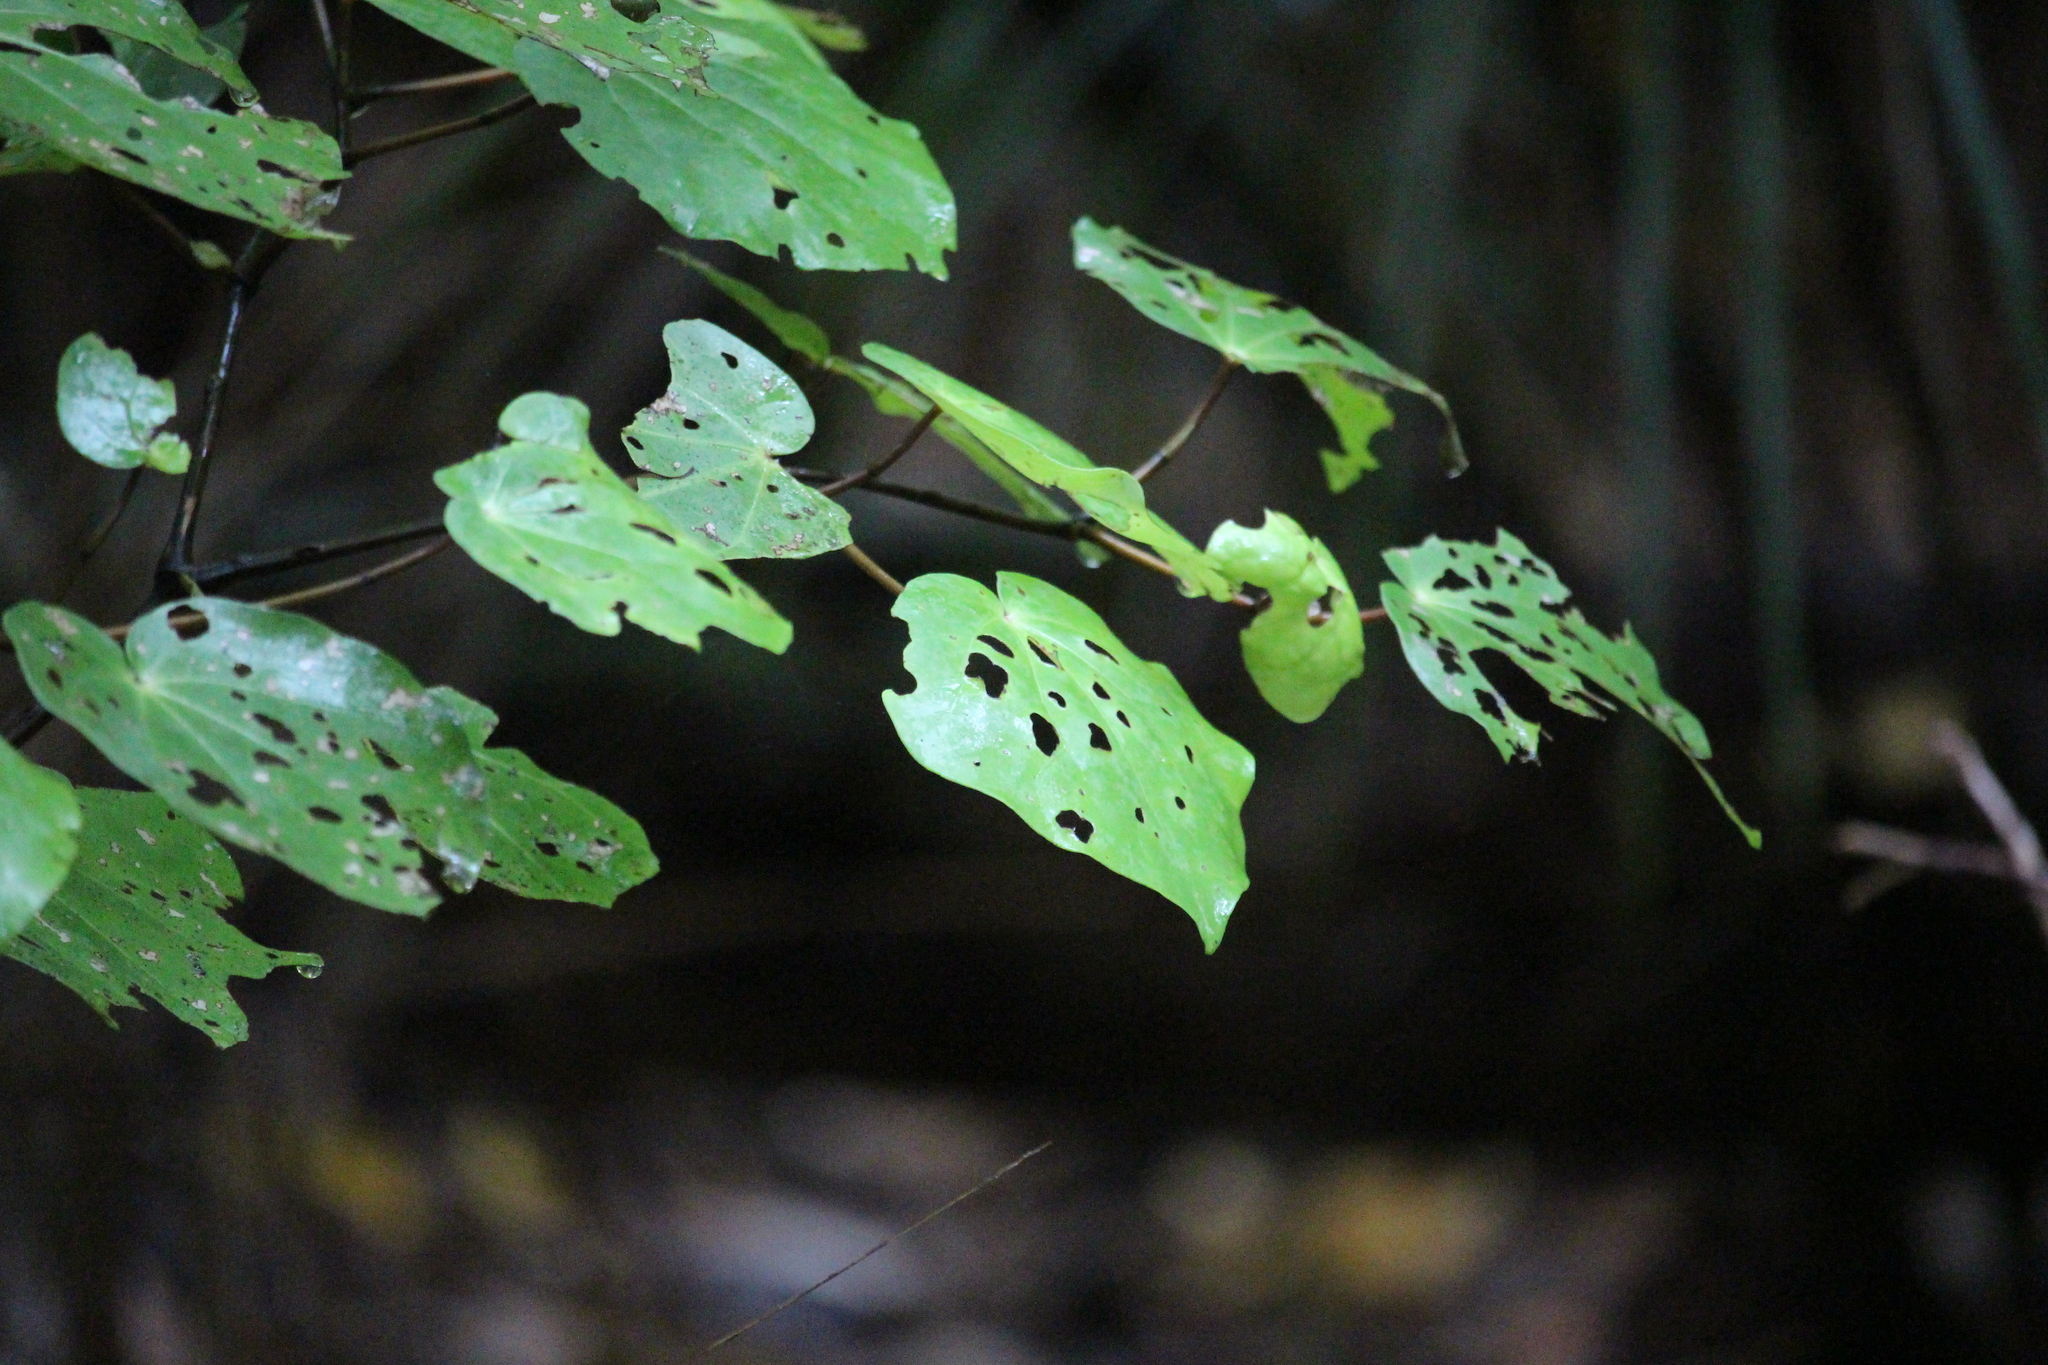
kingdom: Plantae
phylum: Tracheophyta
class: Magnoliopsida
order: Piperales
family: Piperaceae
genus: Macropiper
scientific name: Macropiper excelsum
